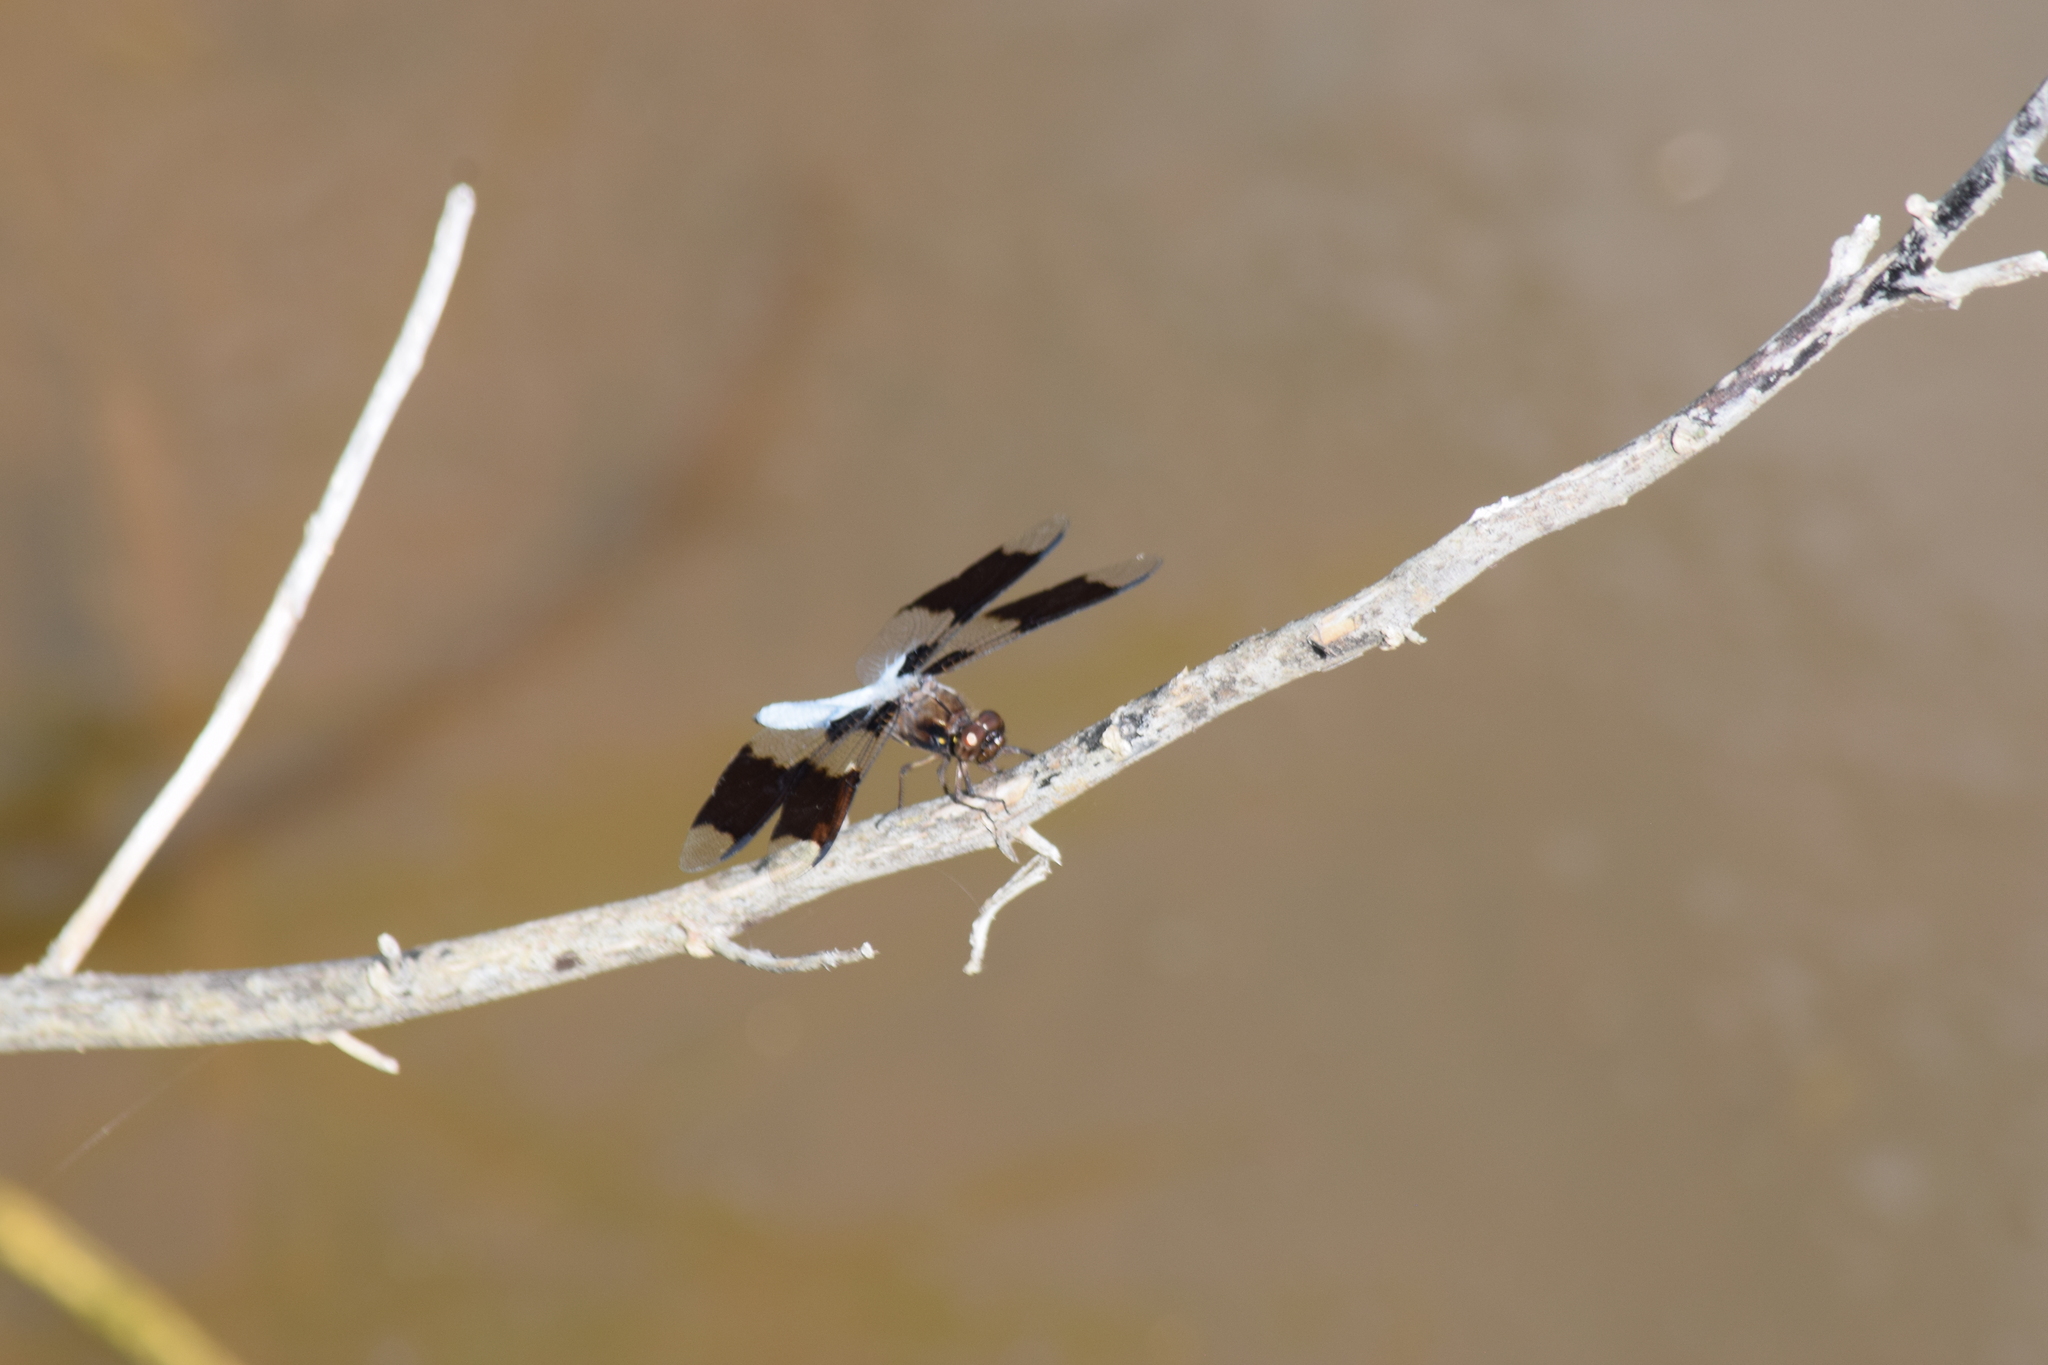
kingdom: Animalia
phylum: Arthropoda
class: Insecta
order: Odonata
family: Libellulidae
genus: Plathemis
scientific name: Plathemis lydia
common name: Common whitetail
